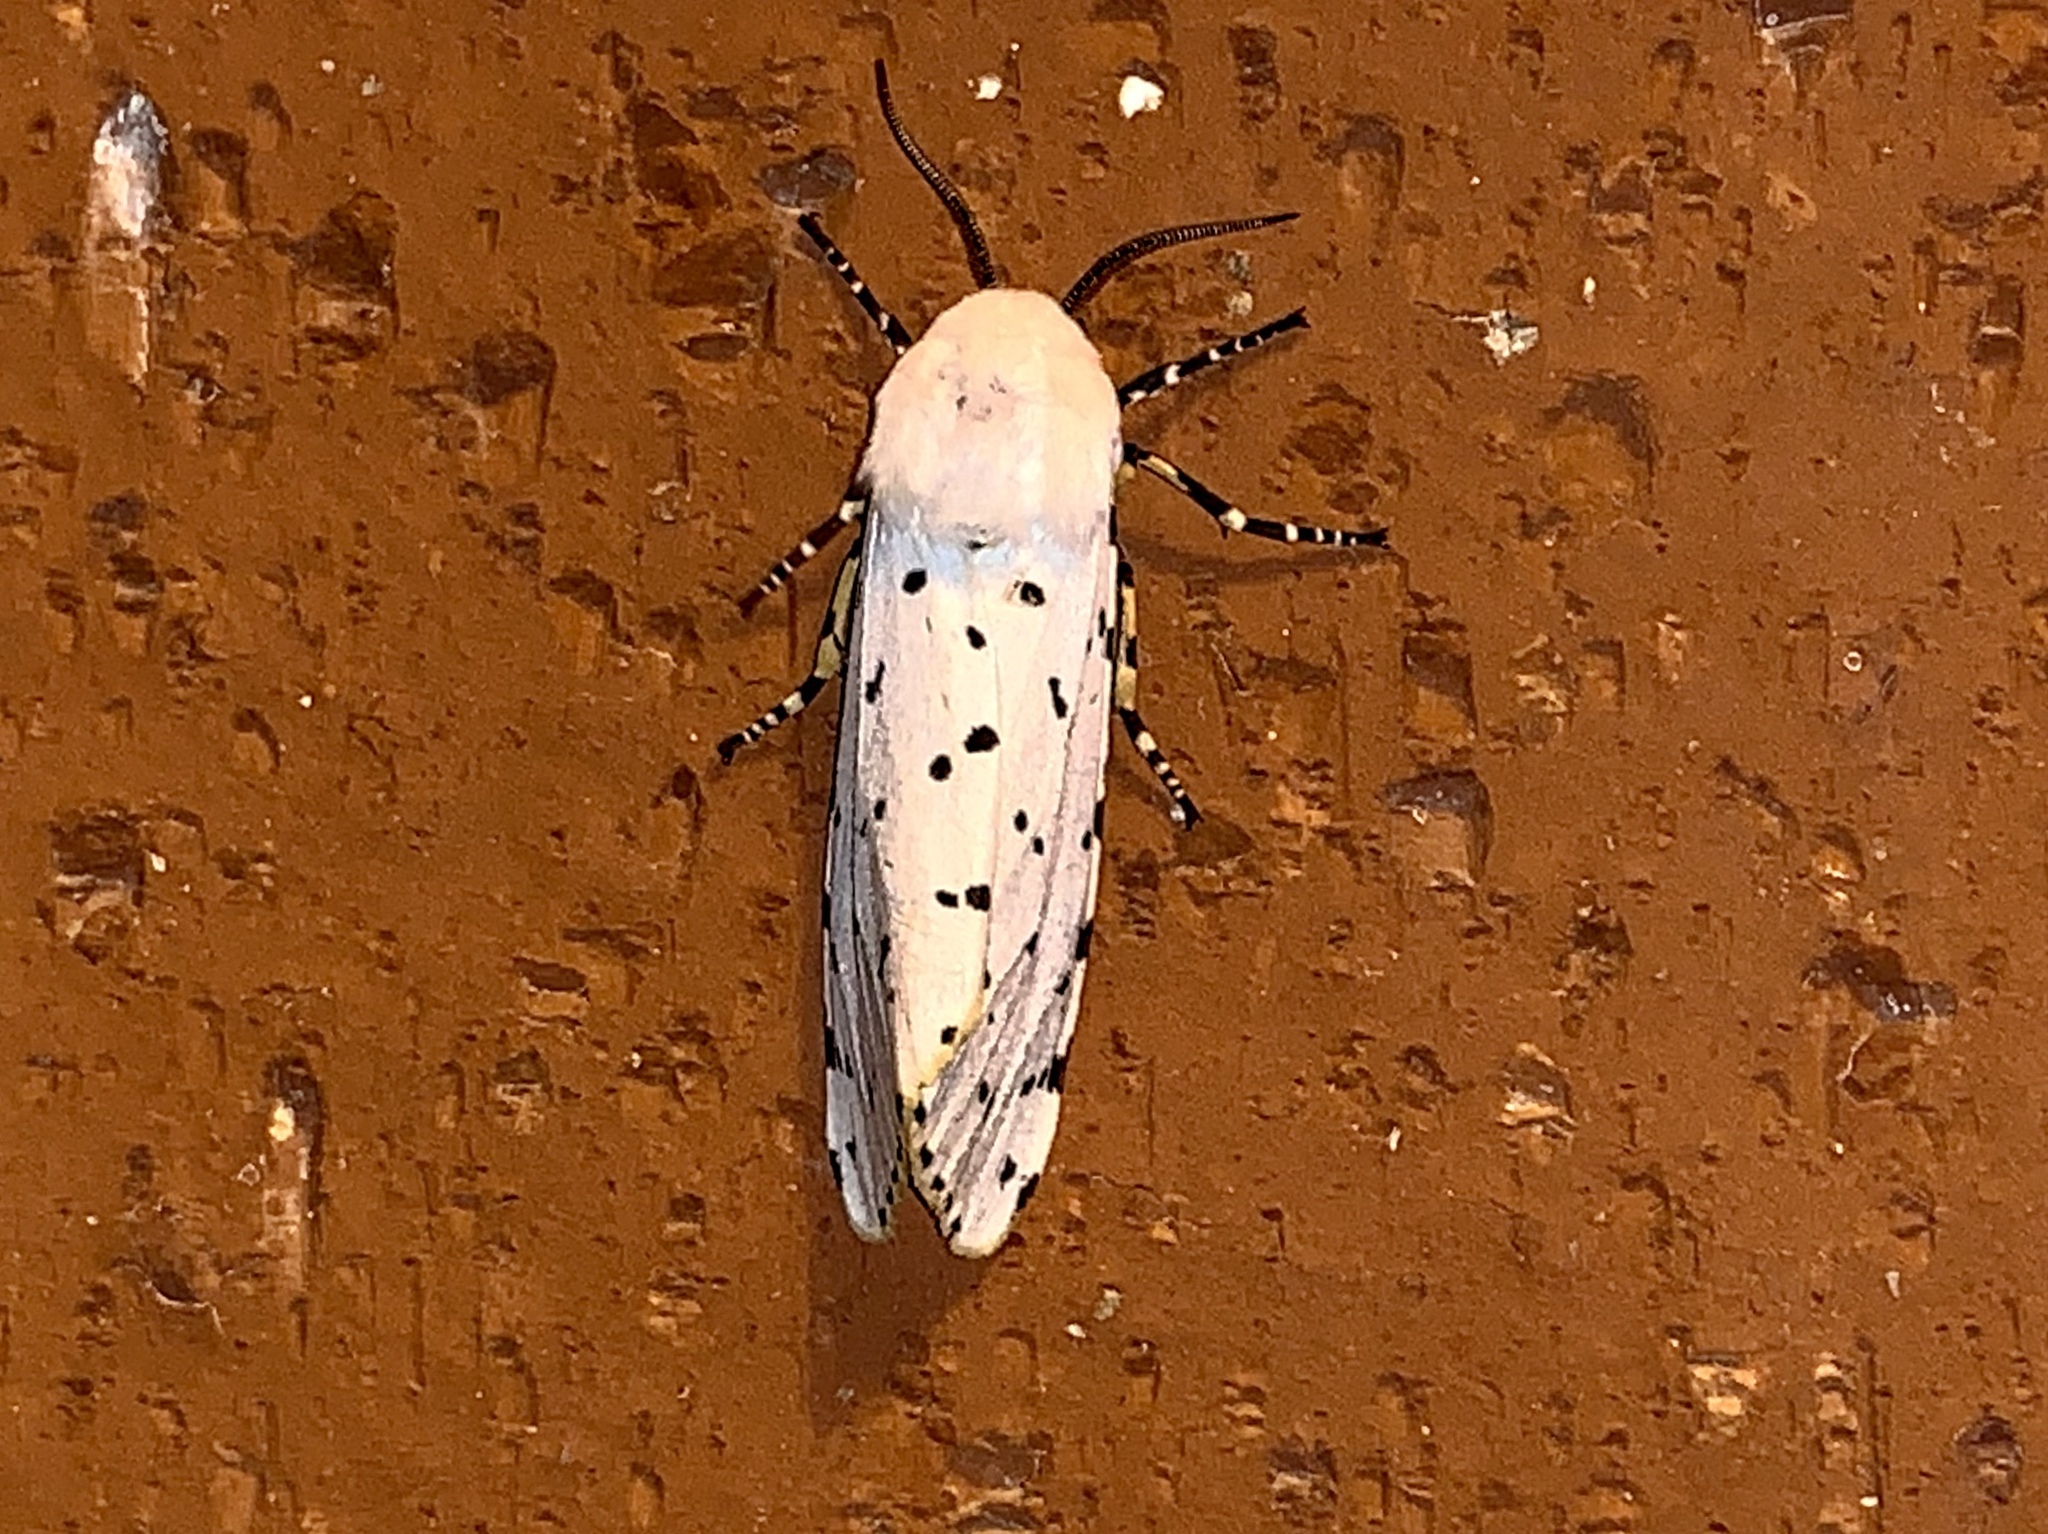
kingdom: Animalia
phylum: Arthropoda
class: Insecta
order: Lepidoptera
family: Erebidae
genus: Estigmene
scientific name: Estigmene acrea
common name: Salt marsh moth
